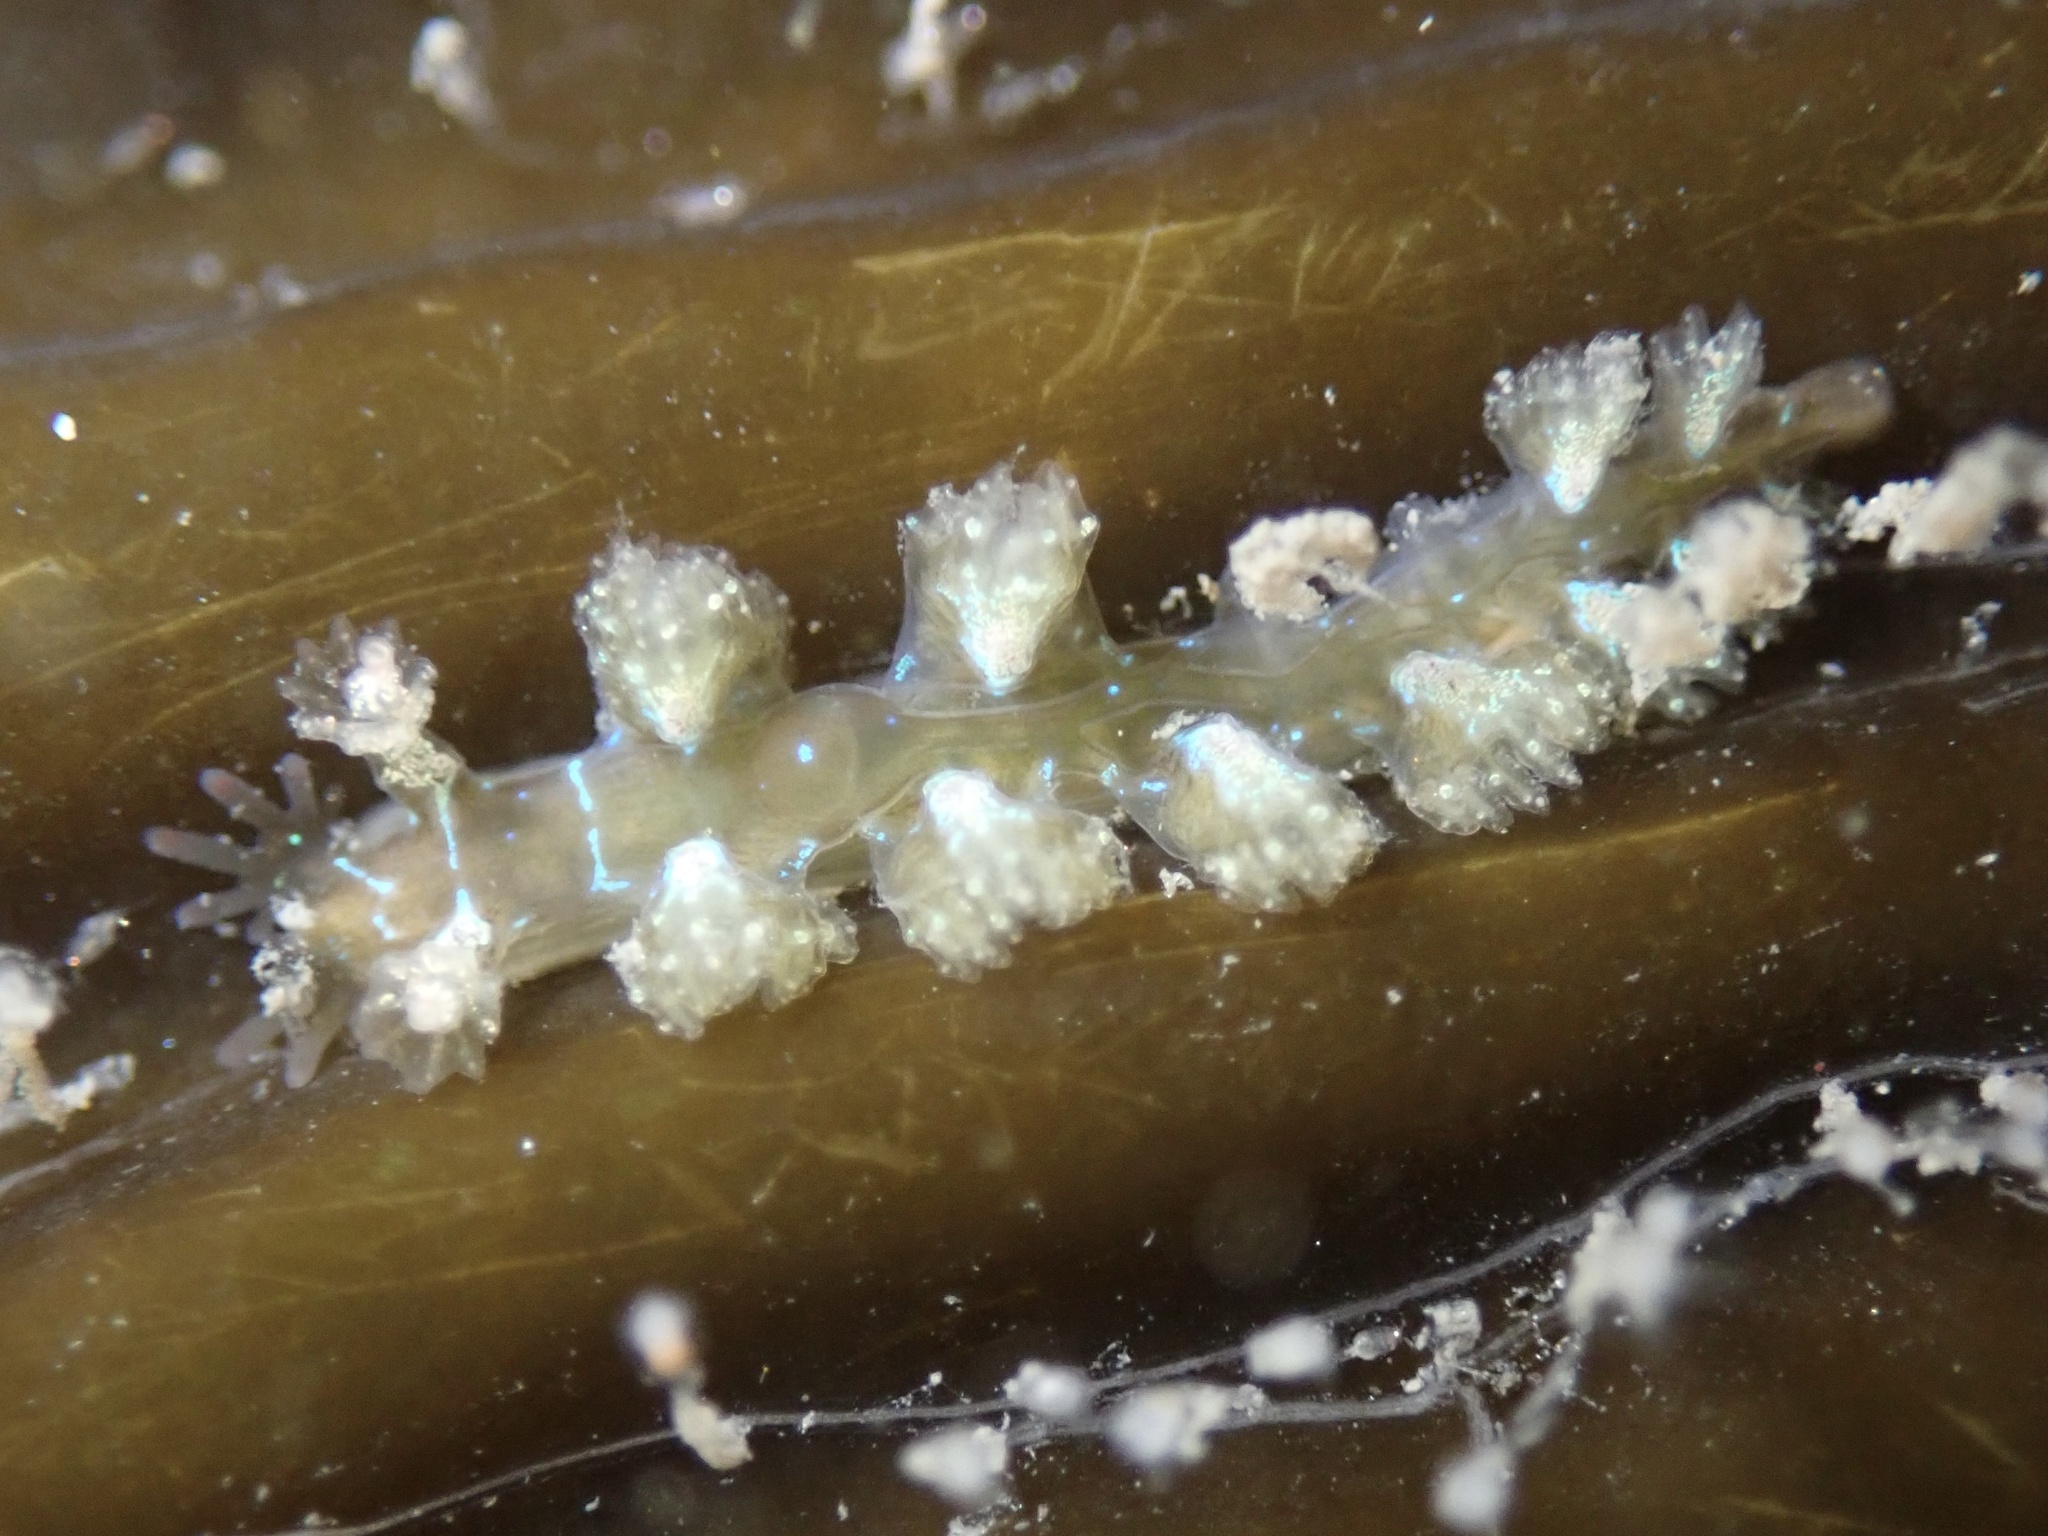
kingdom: Animalia
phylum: Mollusca
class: Gastropoda
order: Nudibranchia
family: Hancockiidae
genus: Hancockia
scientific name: Hancockia californica
